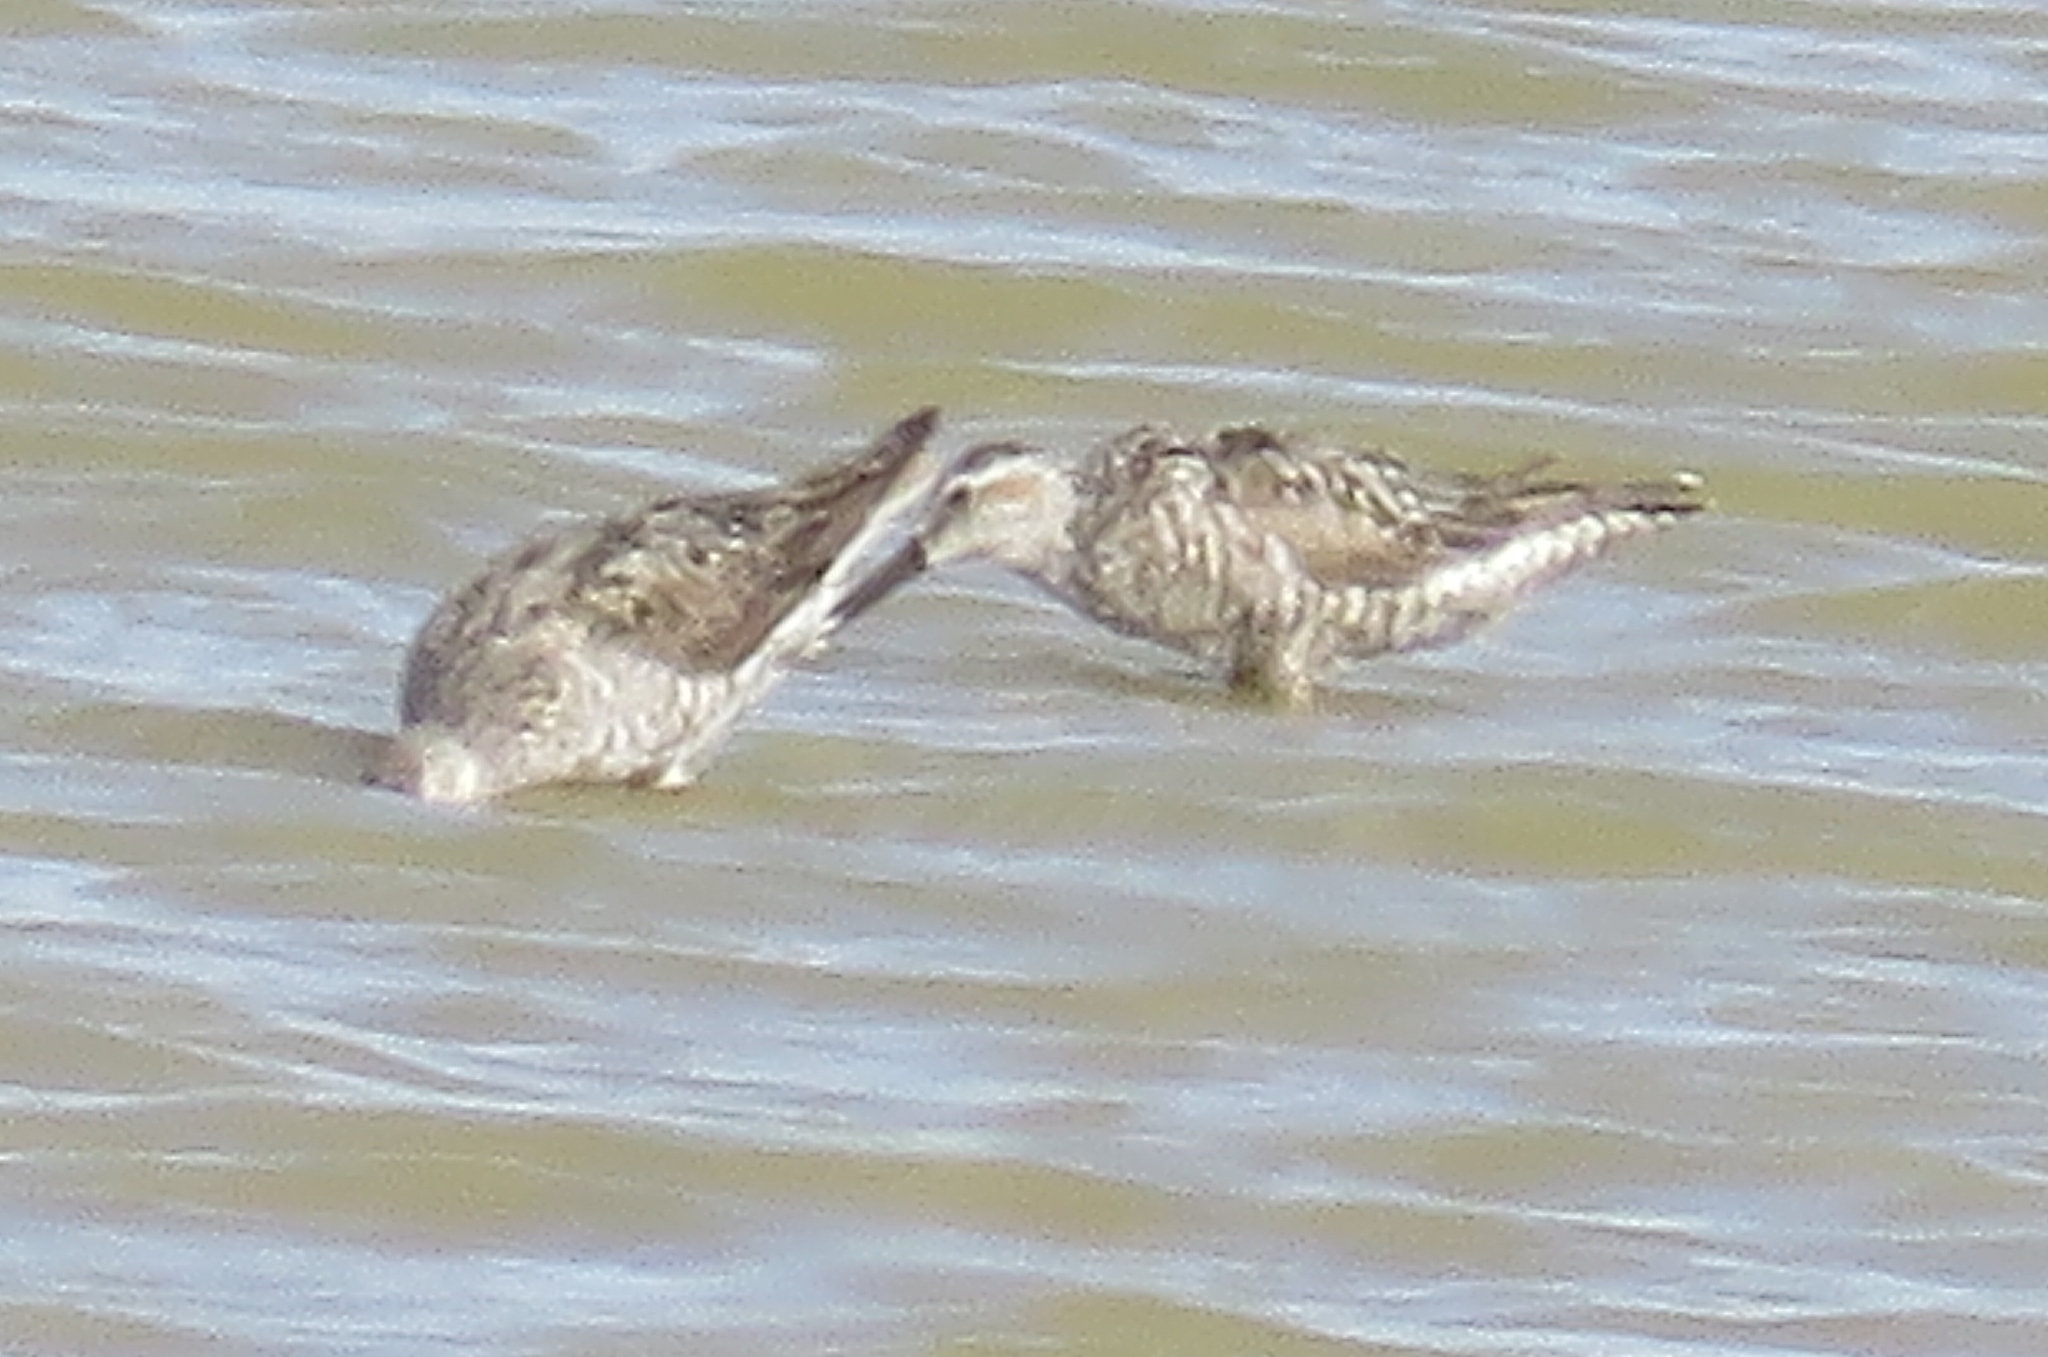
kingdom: Animalia
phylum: Chordata
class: Aves
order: Charadriiformes
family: Scolopacidae
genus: Calidris
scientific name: Calidris himantopus
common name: Stilt sandpiper
